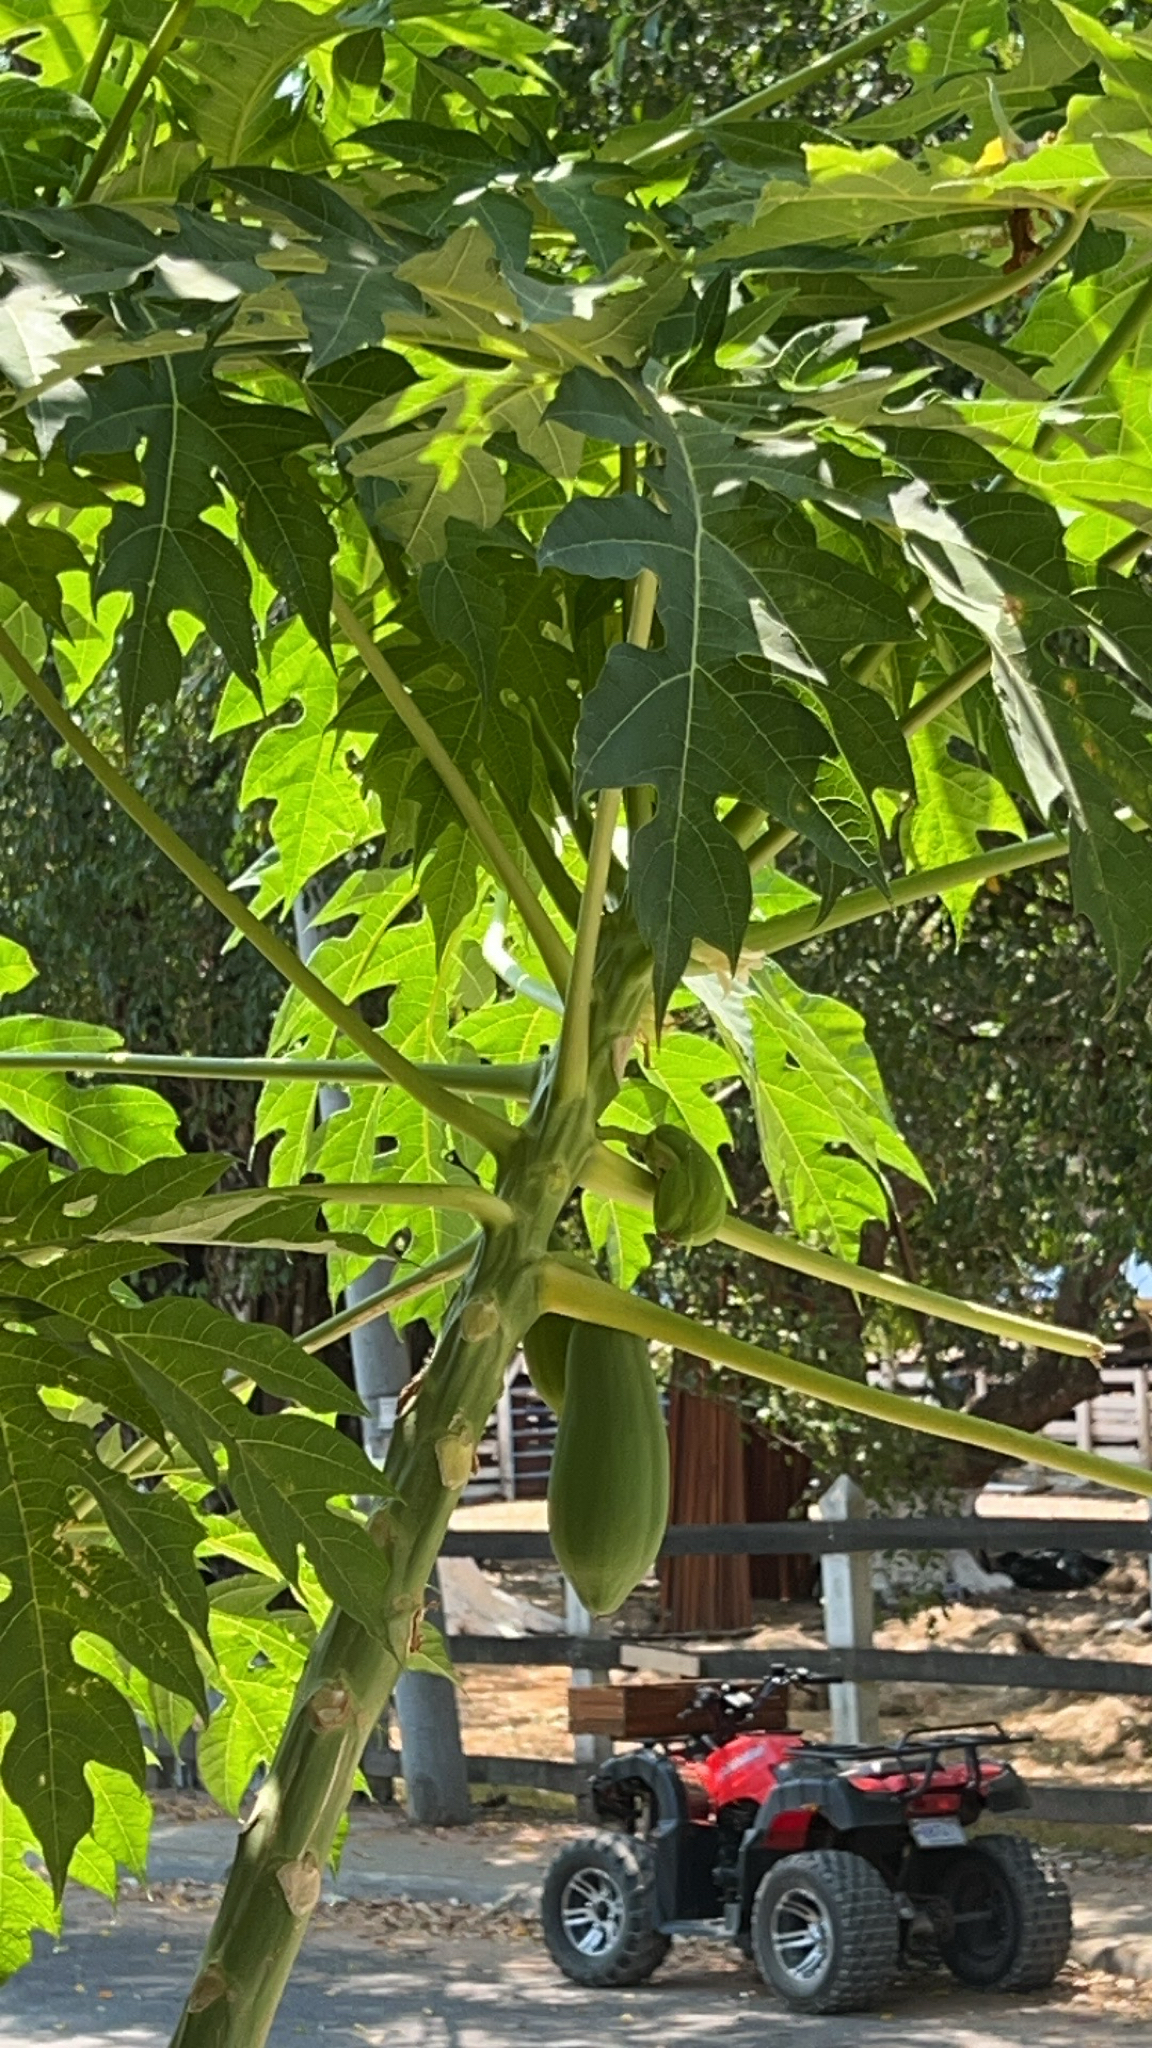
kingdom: Plantae
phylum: Tracheophyta
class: Magnoliopsida
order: Brassicales
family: Caricaceae
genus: Carica
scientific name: Carica papaya
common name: Papaya
